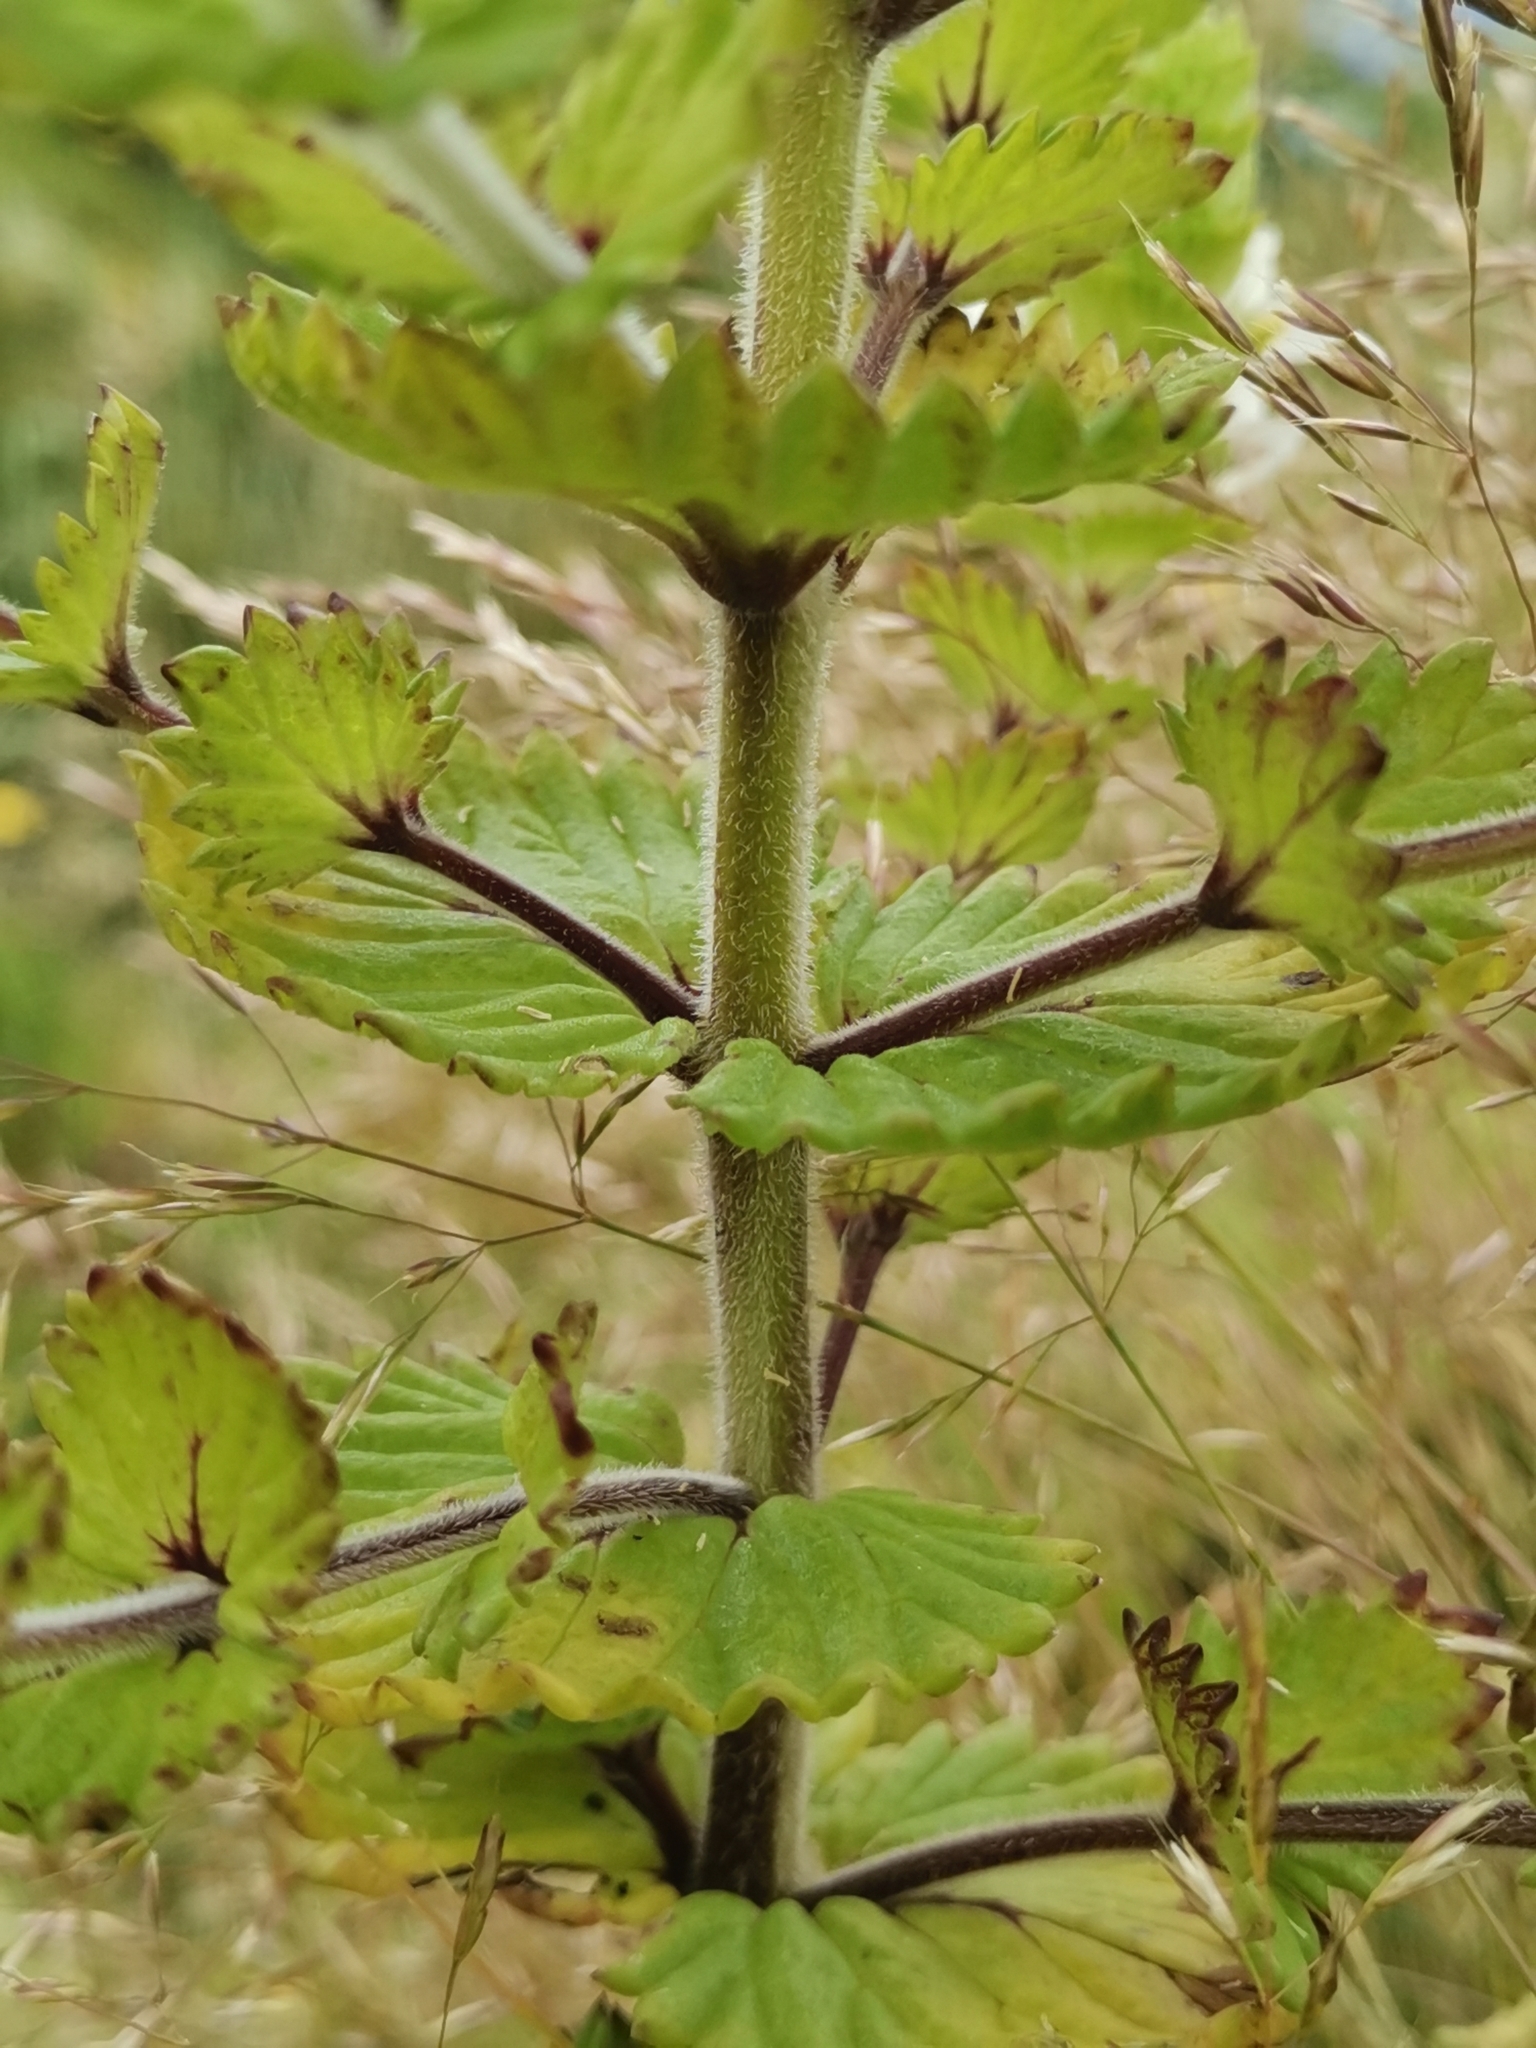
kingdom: Plantae
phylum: Tracheophyta
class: Magnoliopsida
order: Lamiales
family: Orobanchaceae
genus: Euphrasia
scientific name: Euphrasia azorica
